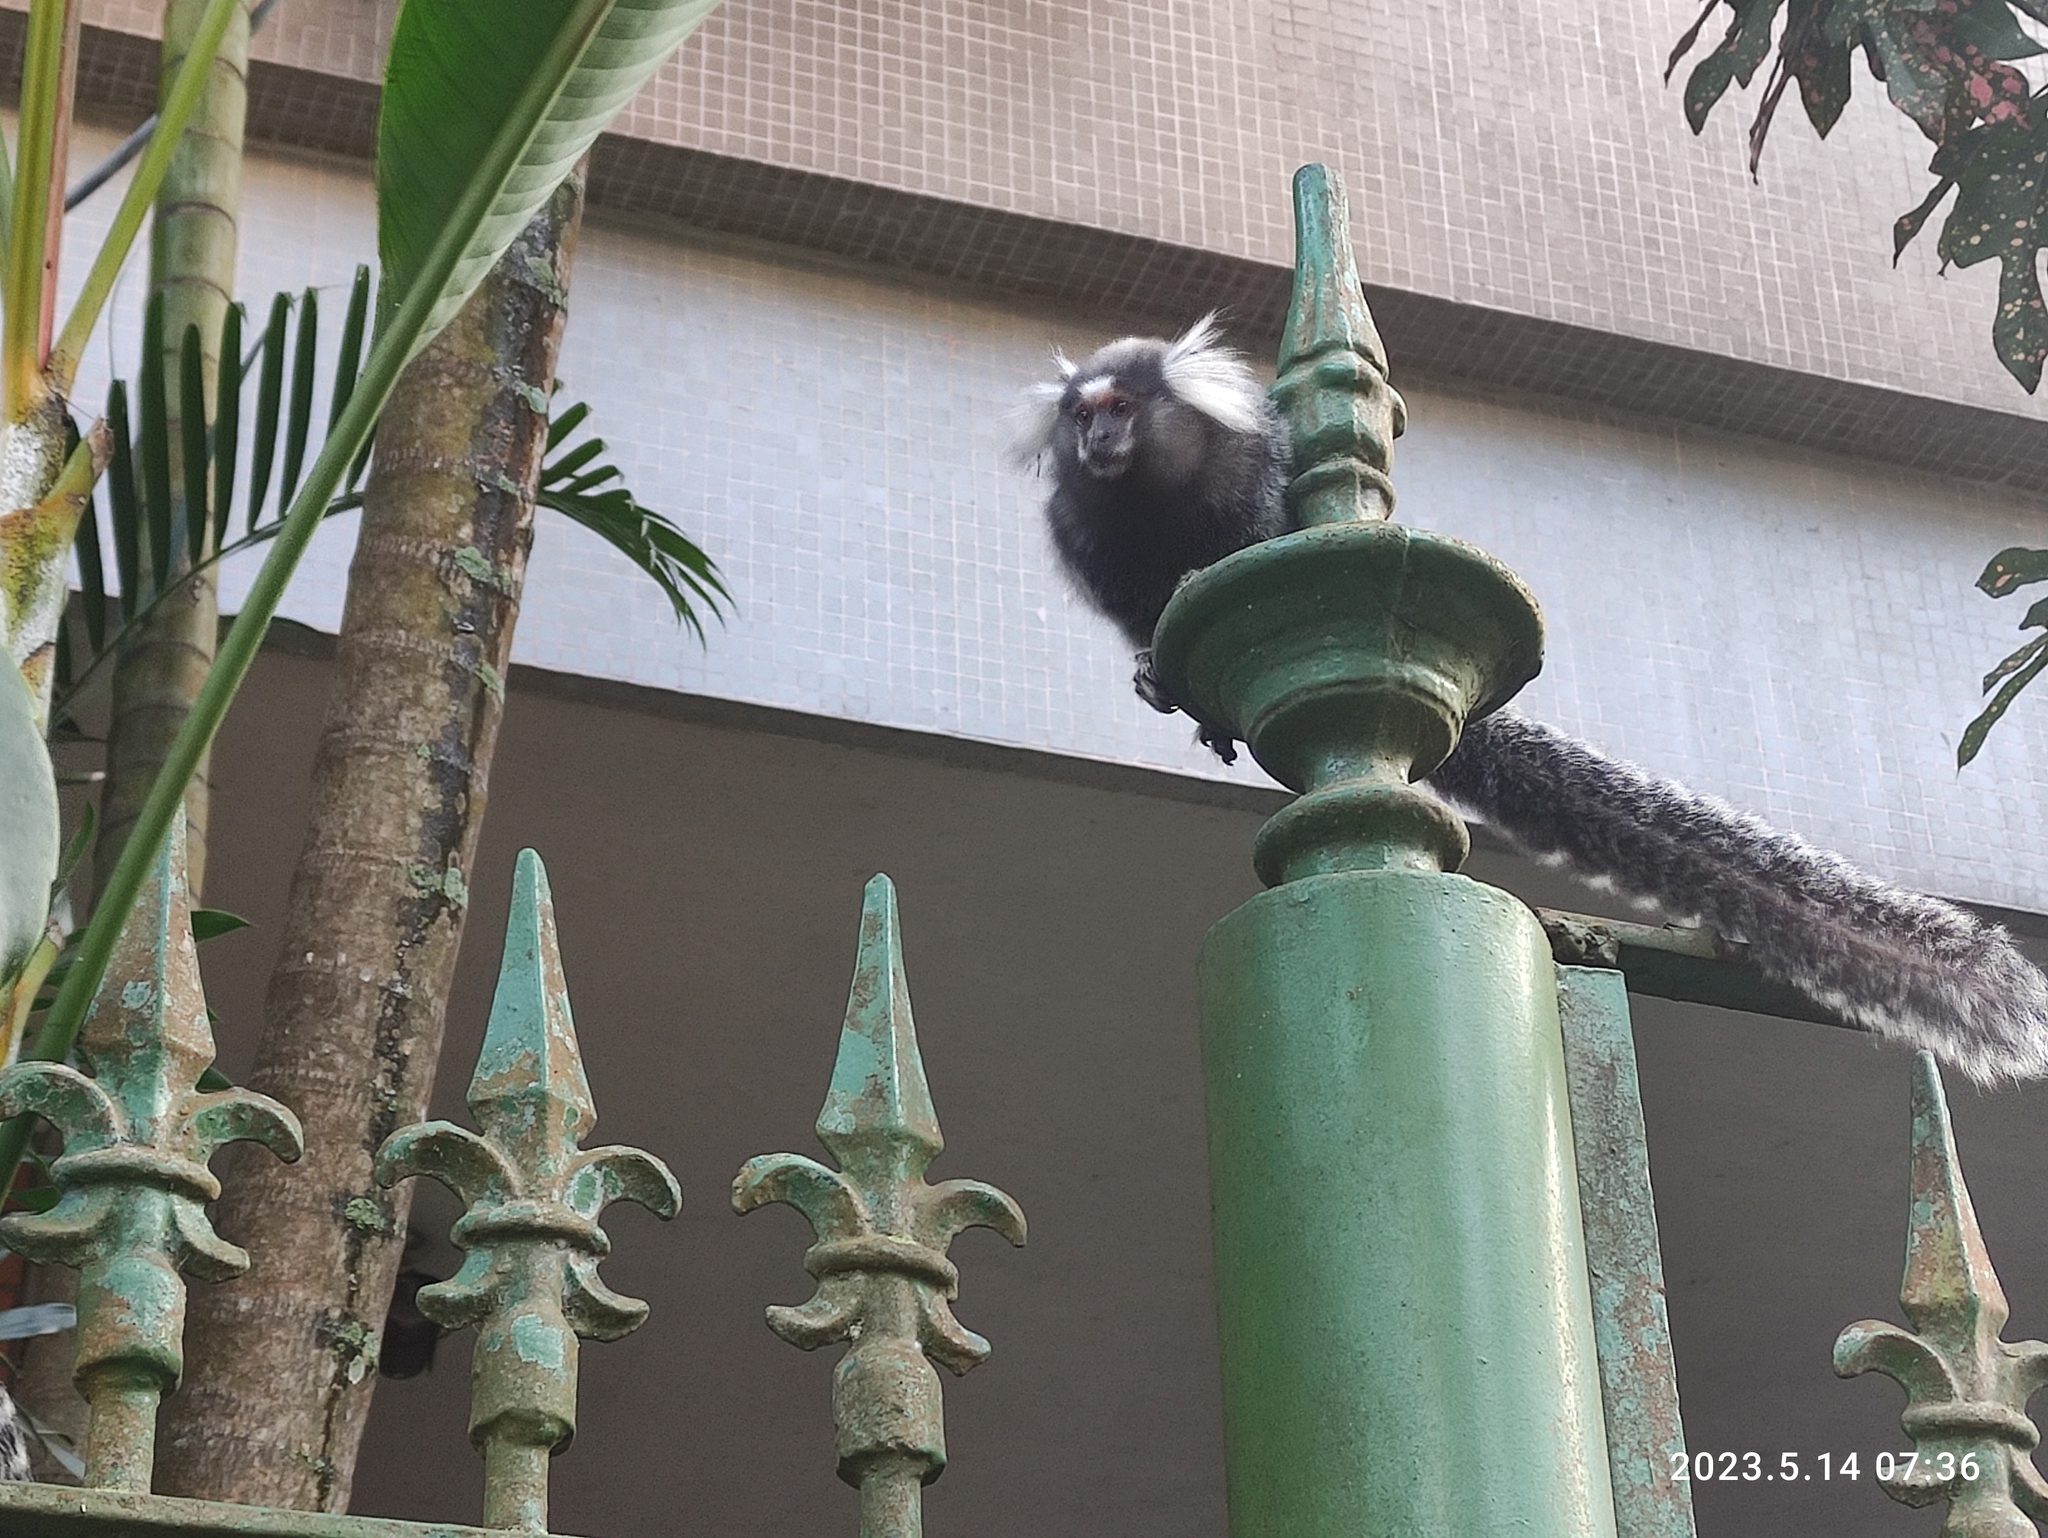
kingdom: Animalia
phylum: Chordata
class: Mammalia
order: Primates
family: Callitrichidae
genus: Callithrix
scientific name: Callithrix jacchus
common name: Common marmoset
